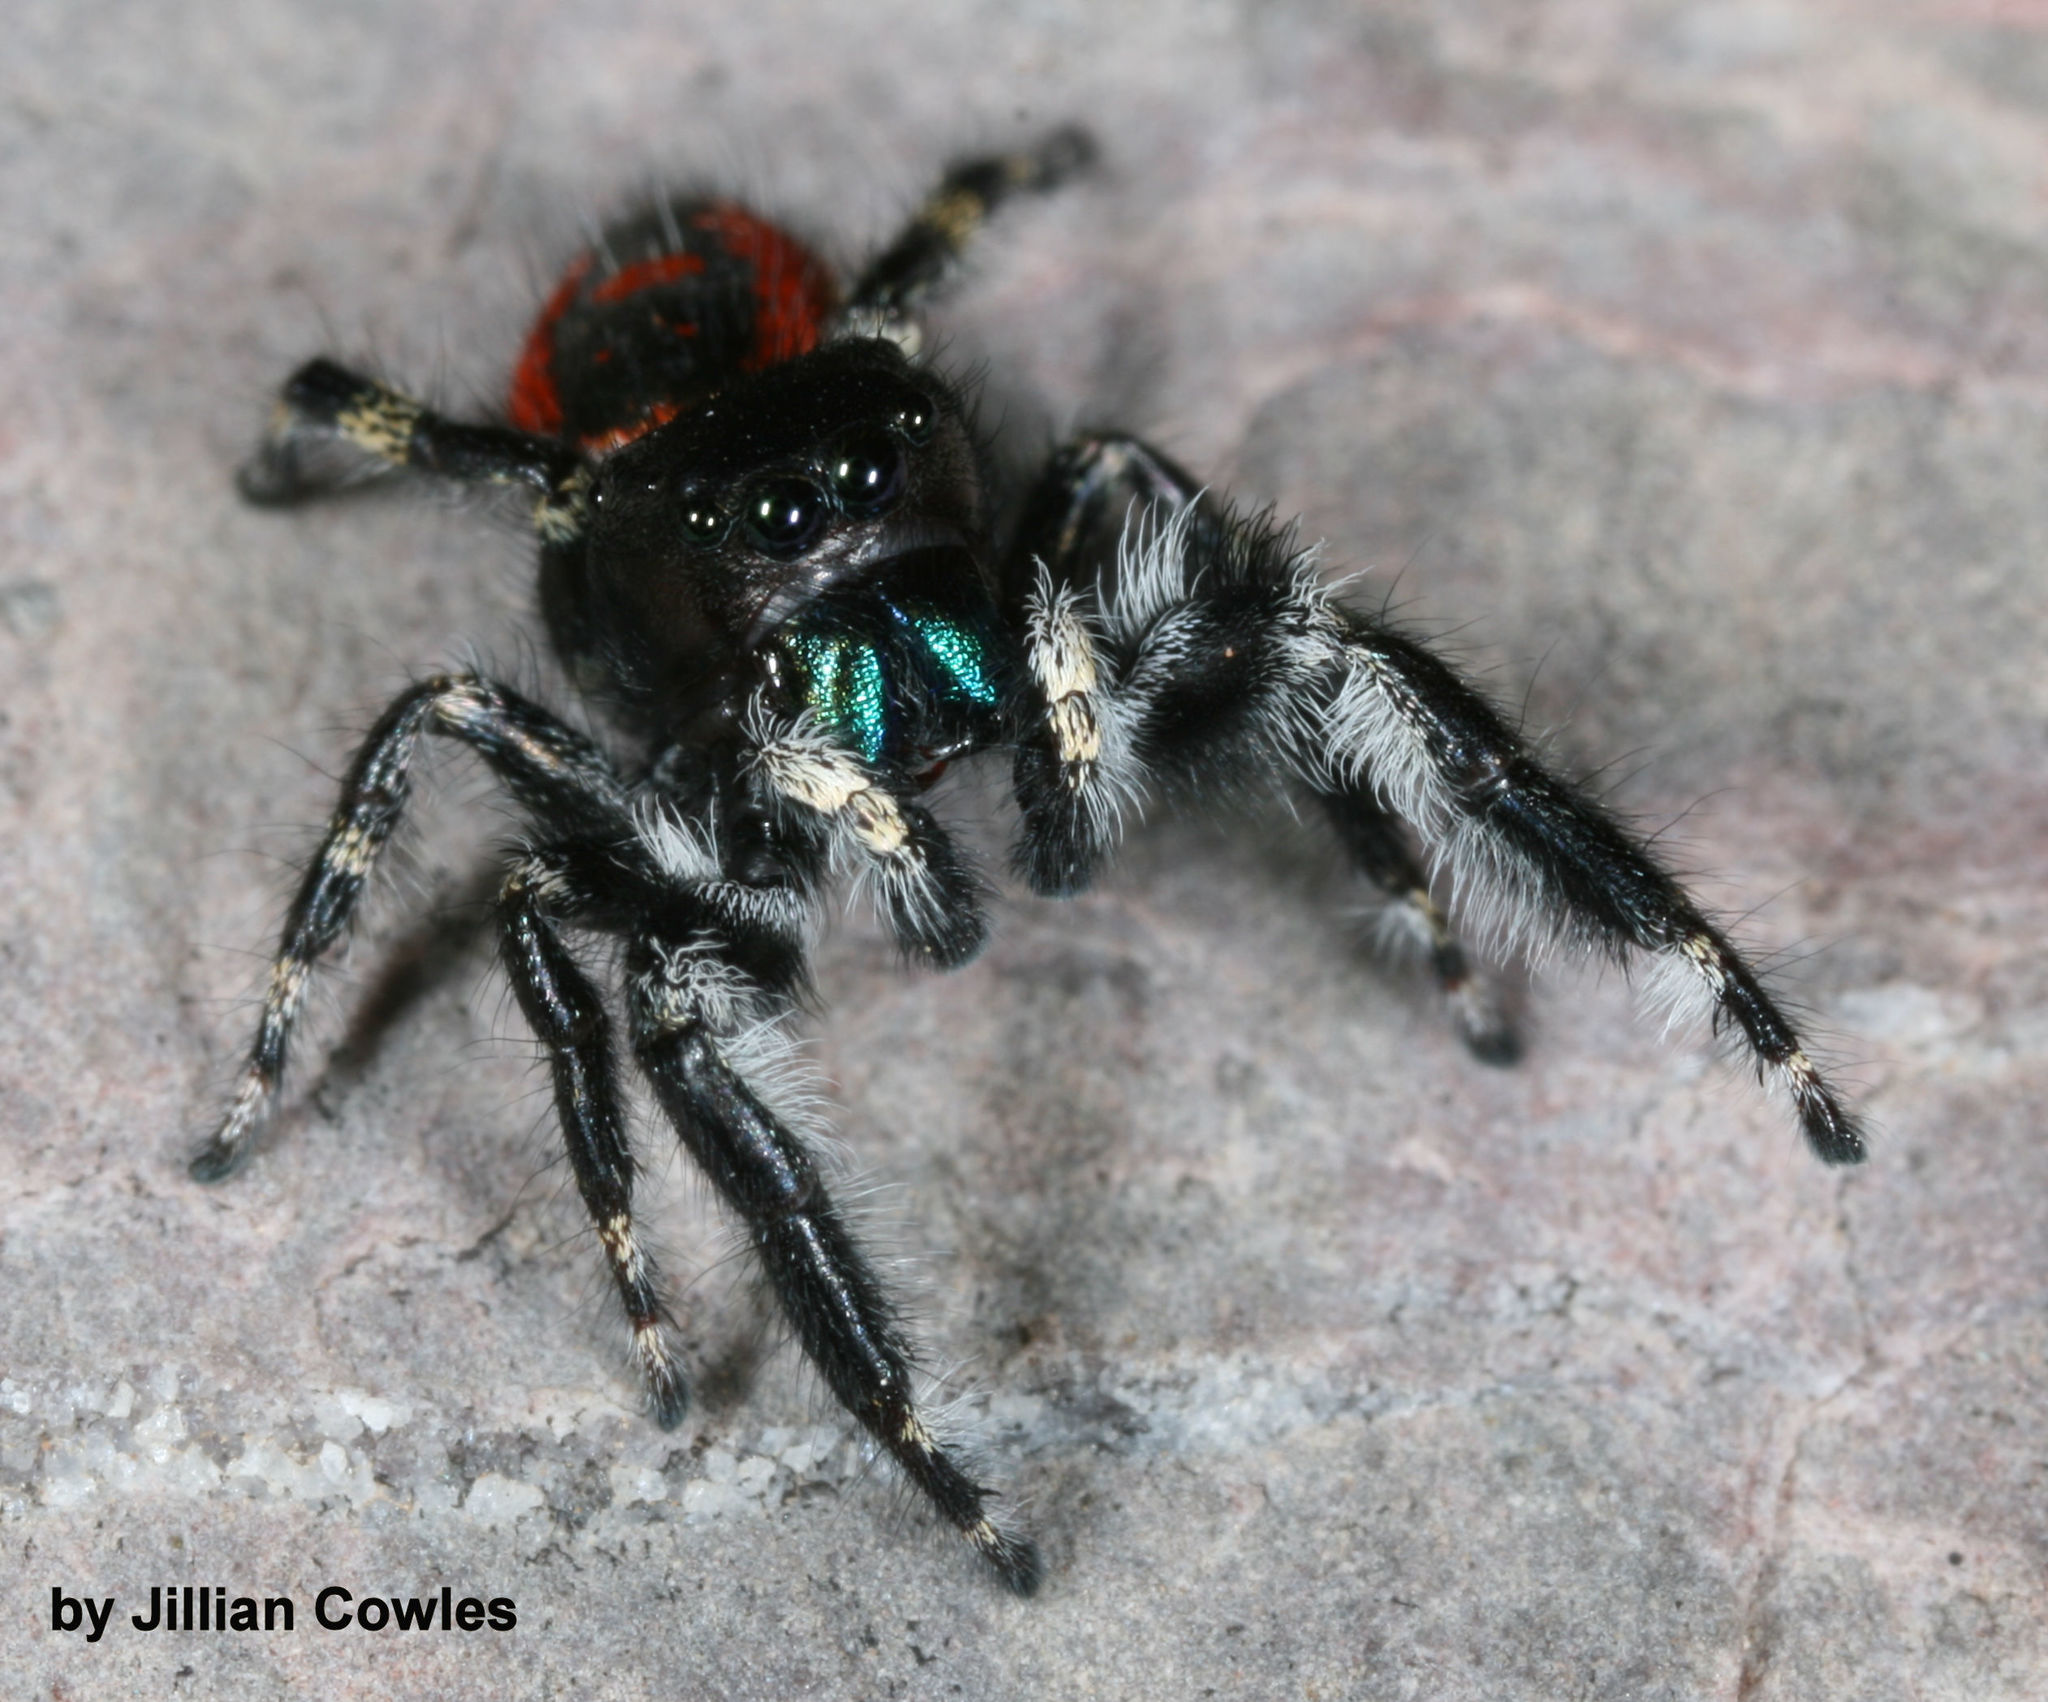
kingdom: Animalia
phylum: Arthropoda
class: Arachnida
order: Araneae
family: Salticidae
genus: Phidippus
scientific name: Phidippus californicus
